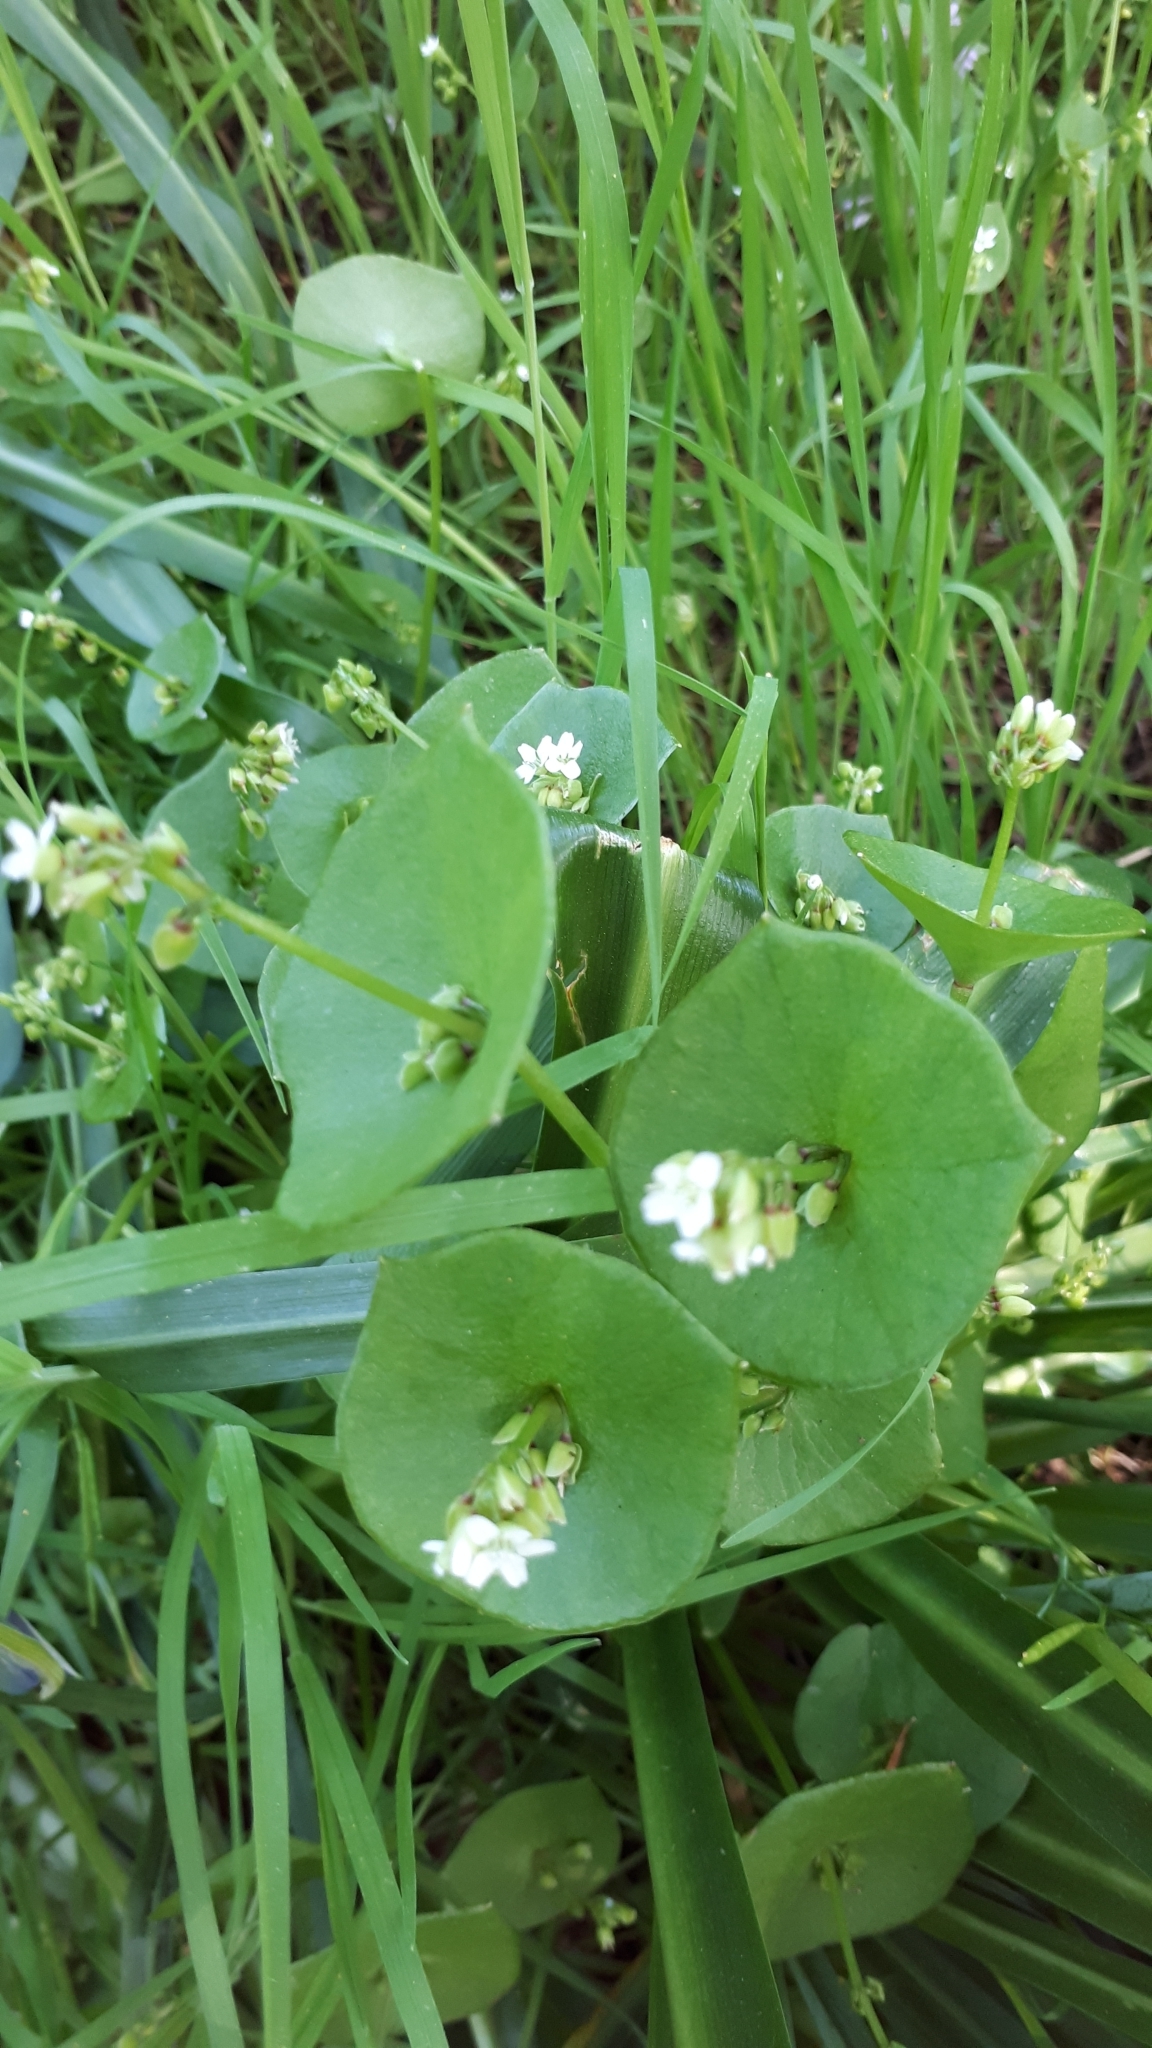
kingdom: Plantae
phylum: Tracheophyta
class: Magnoliopsida
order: Caryophyllales
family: Montiaceae
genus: Claytonia
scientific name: Claytonia perfoliata
